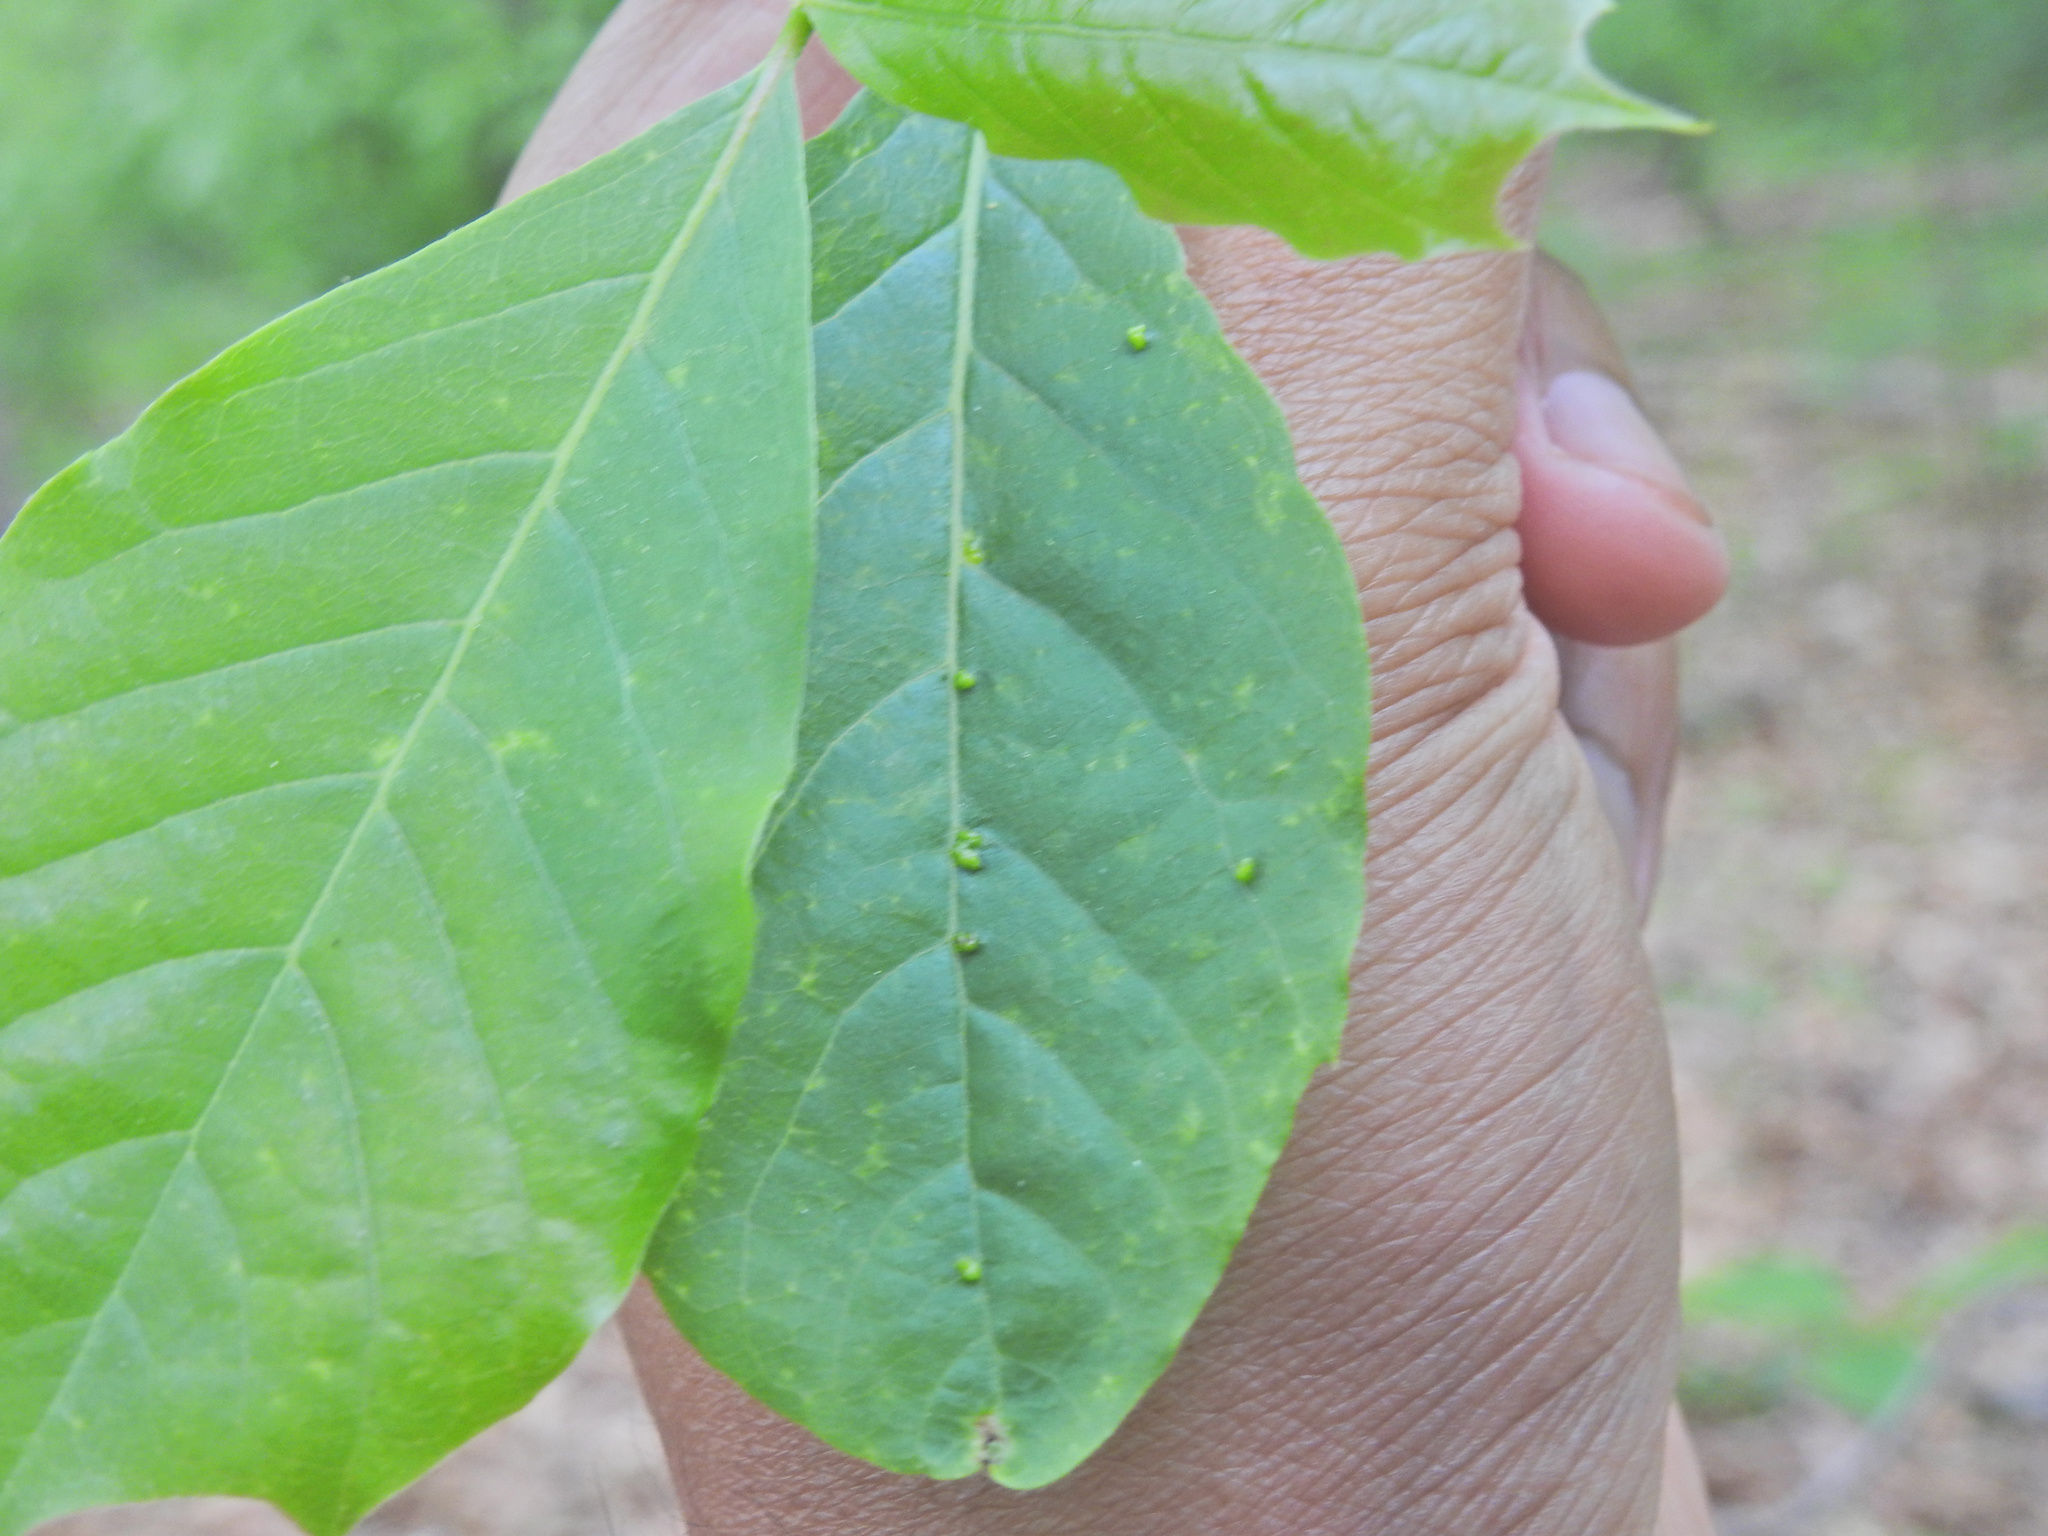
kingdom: Animalia
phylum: Arthropoda
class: Arachnida
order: Trombidiformes
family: Eriophyidae
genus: Aceria
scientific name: Aceria
